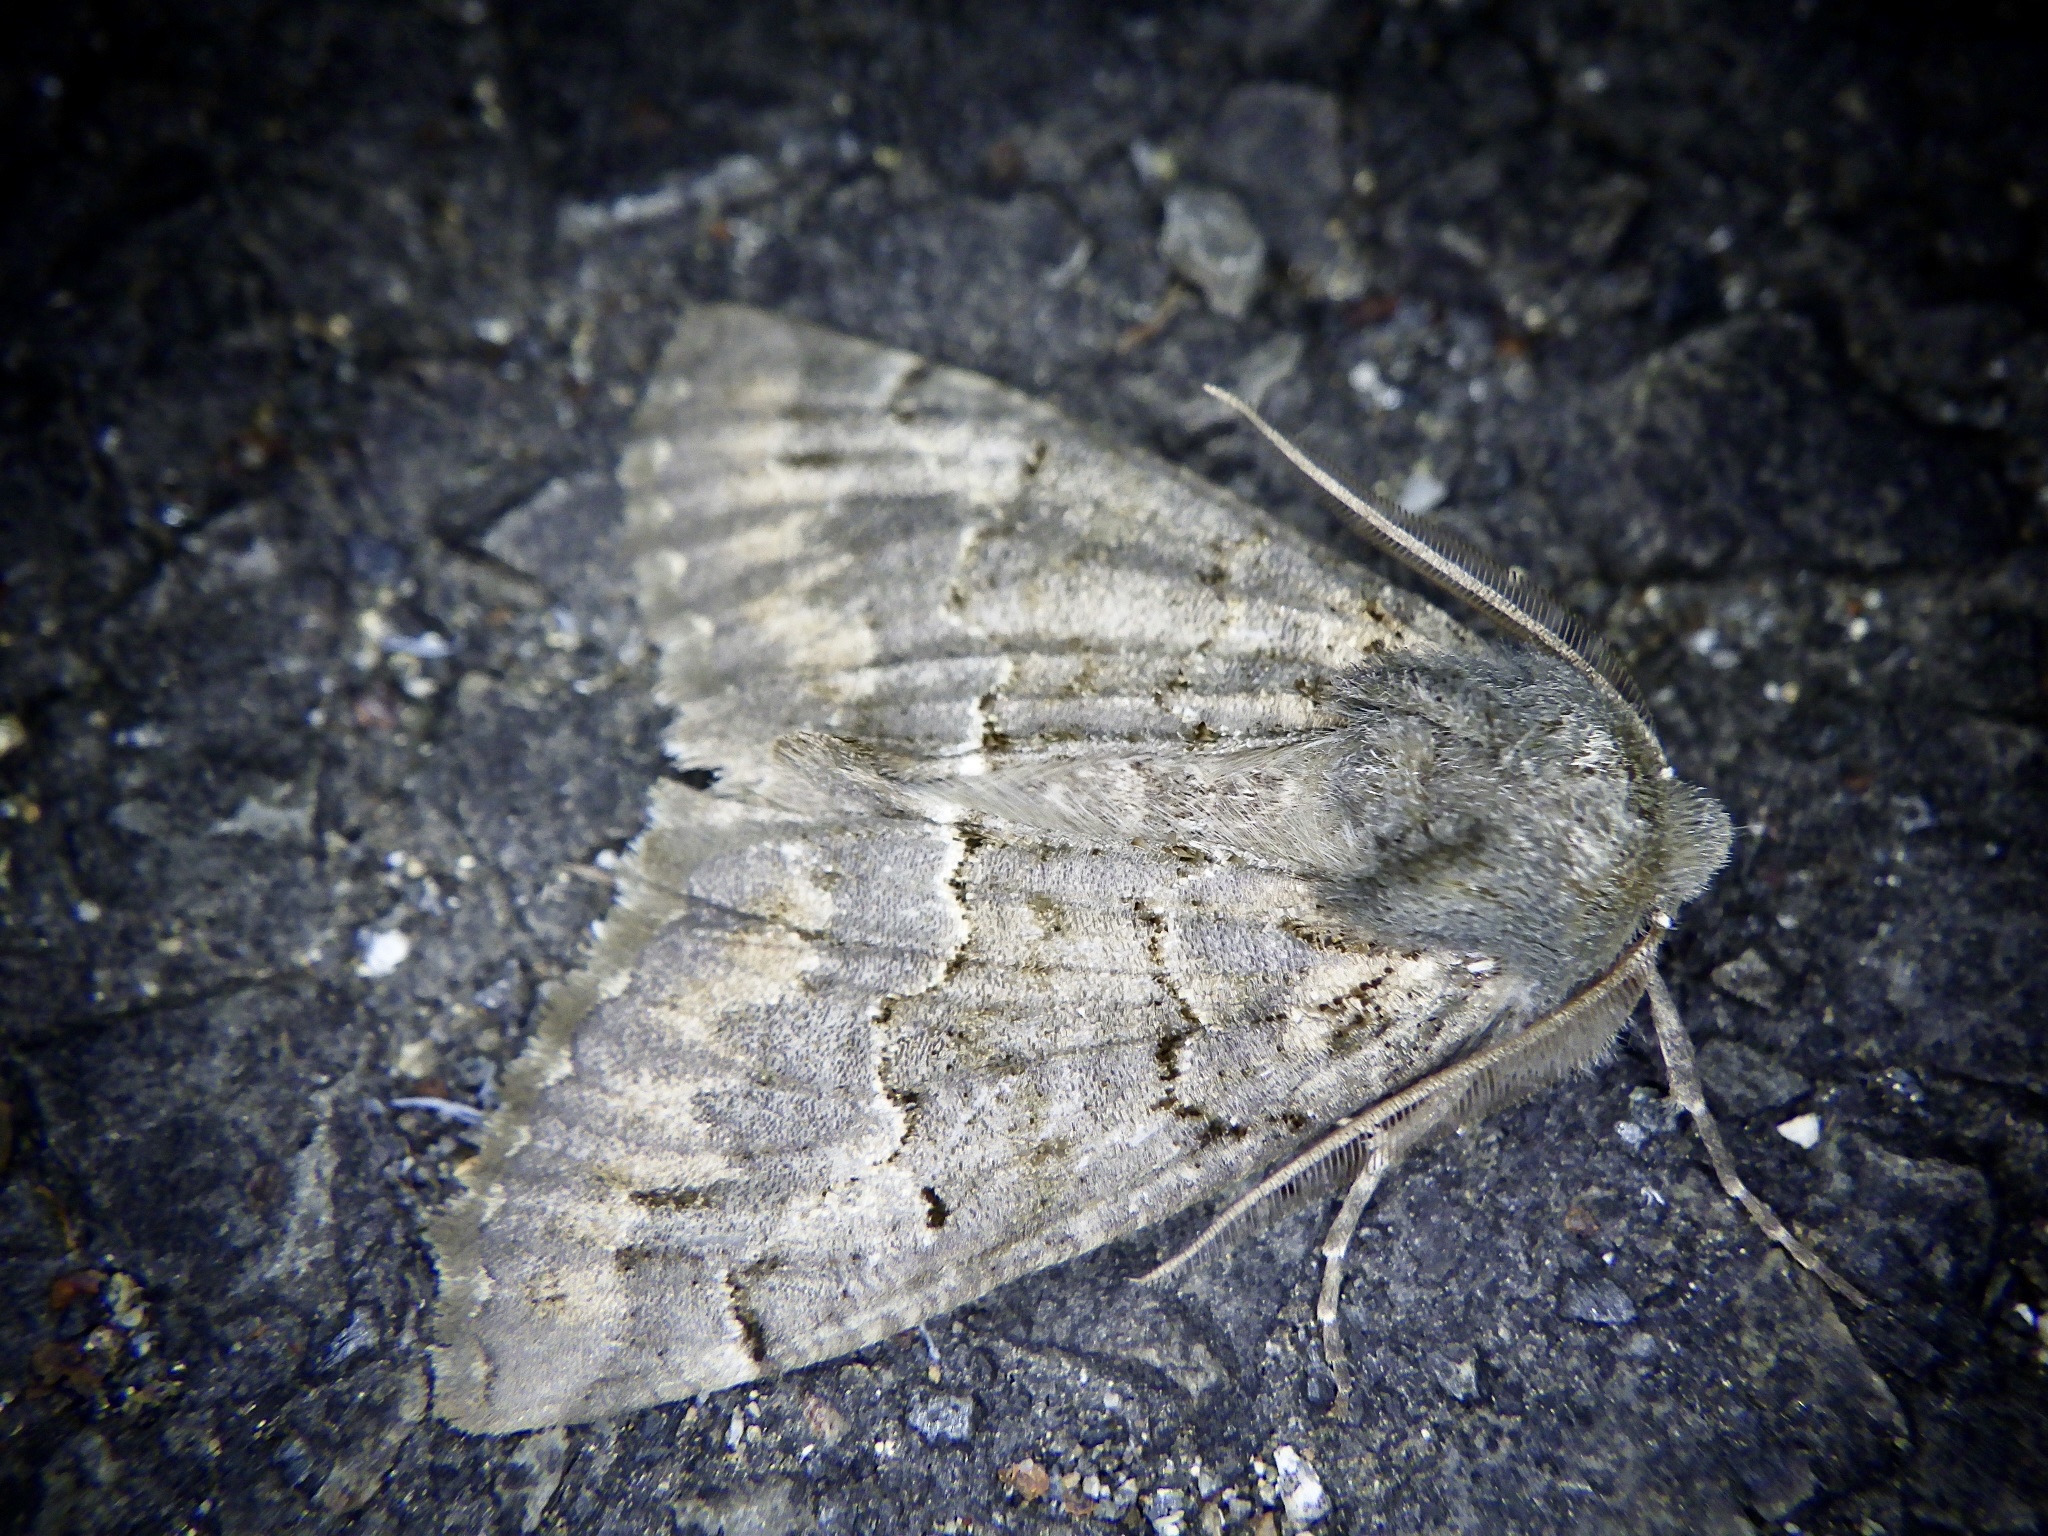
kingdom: Animalia
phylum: Arthropoda
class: Insecta
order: Lepidoptera
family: Geometridae
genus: Pachyligia
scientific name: Pachyligia dolosa
